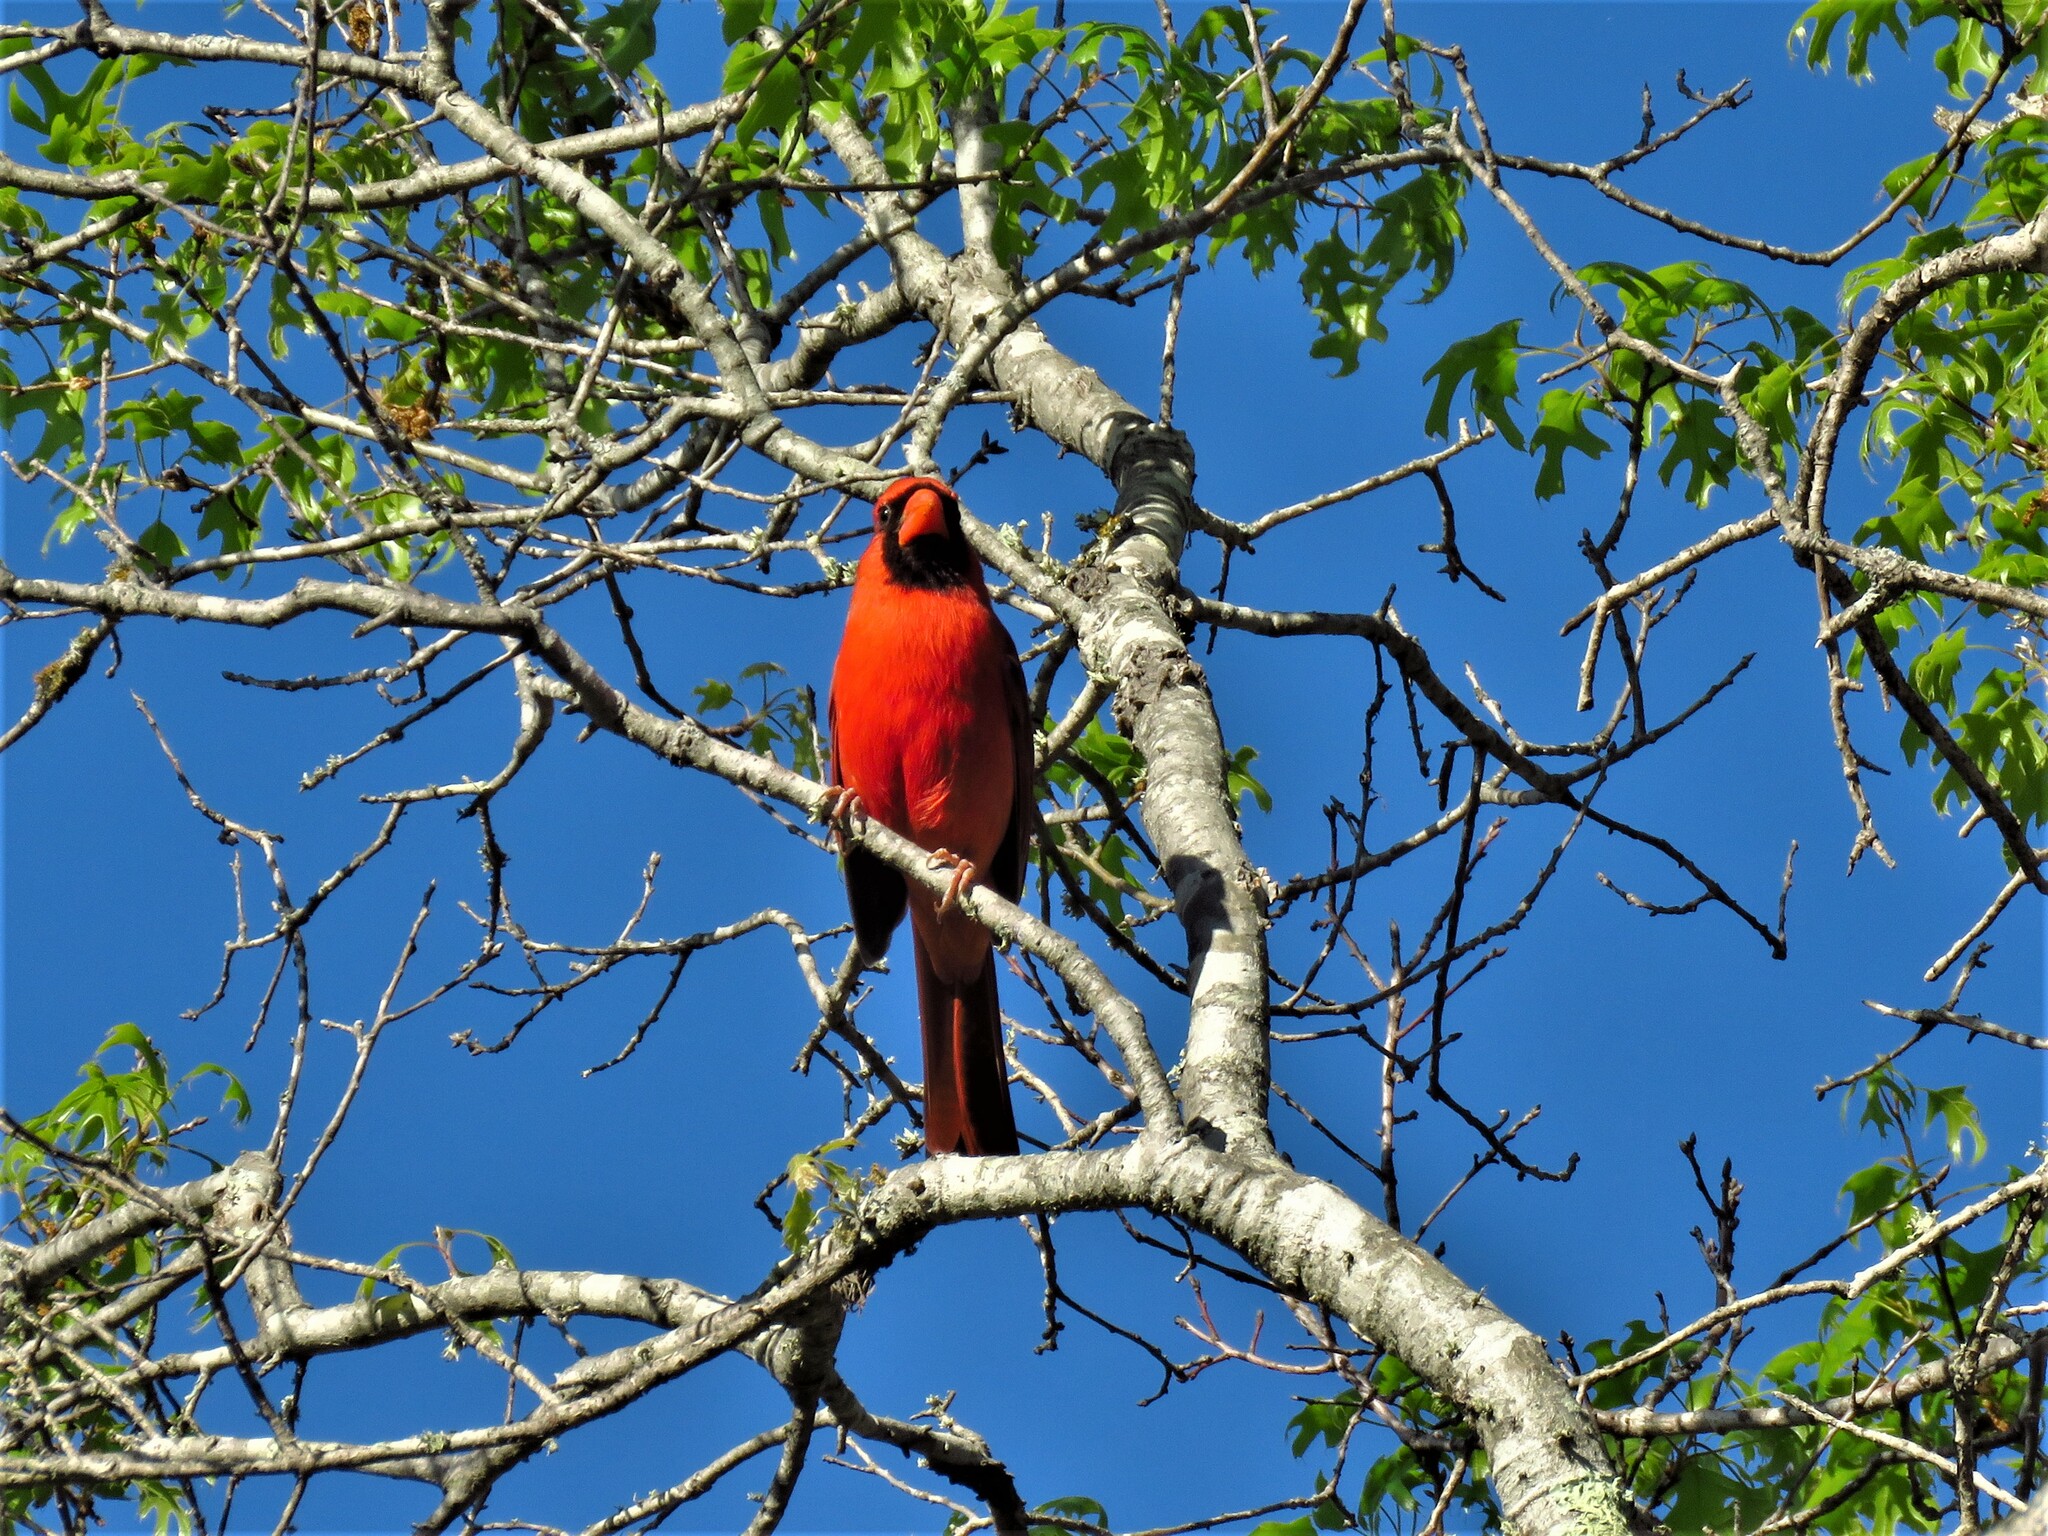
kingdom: Animalia
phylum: Chordata
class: Aves
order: Passeriformes
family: Cardinalidae
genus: Cardinalis
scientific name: Cardinalis cardinalis
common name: Northern cardinal
